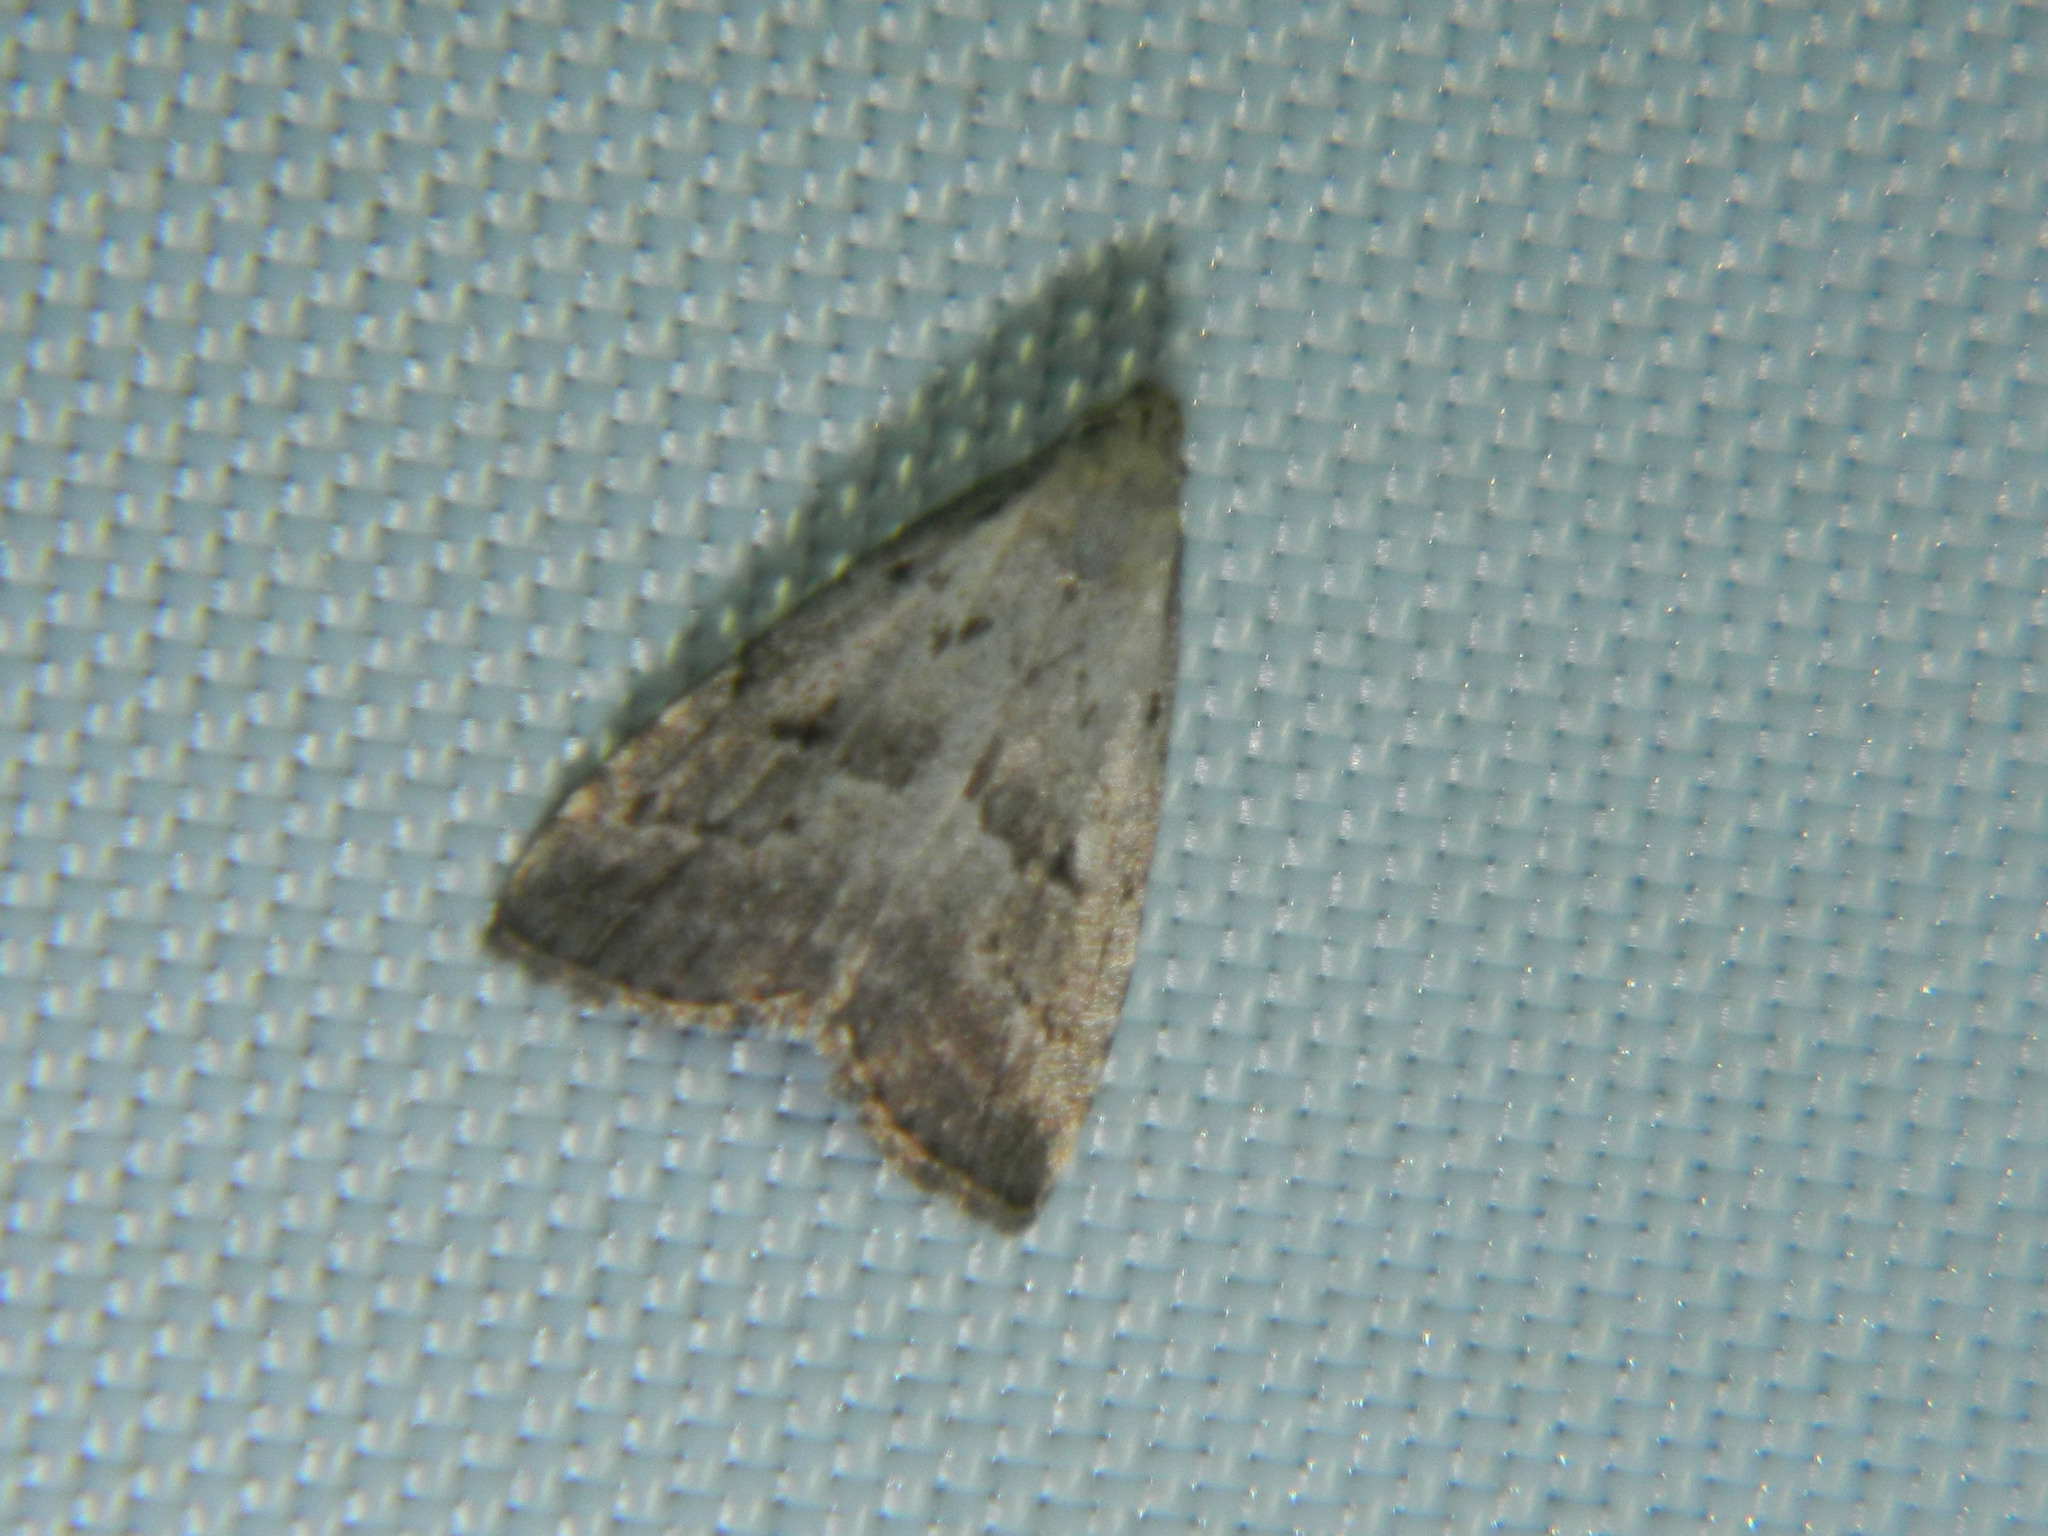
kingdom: Animalia
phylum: Arthropoda
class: Insecta
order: Lepidoptera
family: Erebidae
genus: Hypenodes
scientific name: Hypenodes fractilinea
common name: Broken-line hypenodes moth
